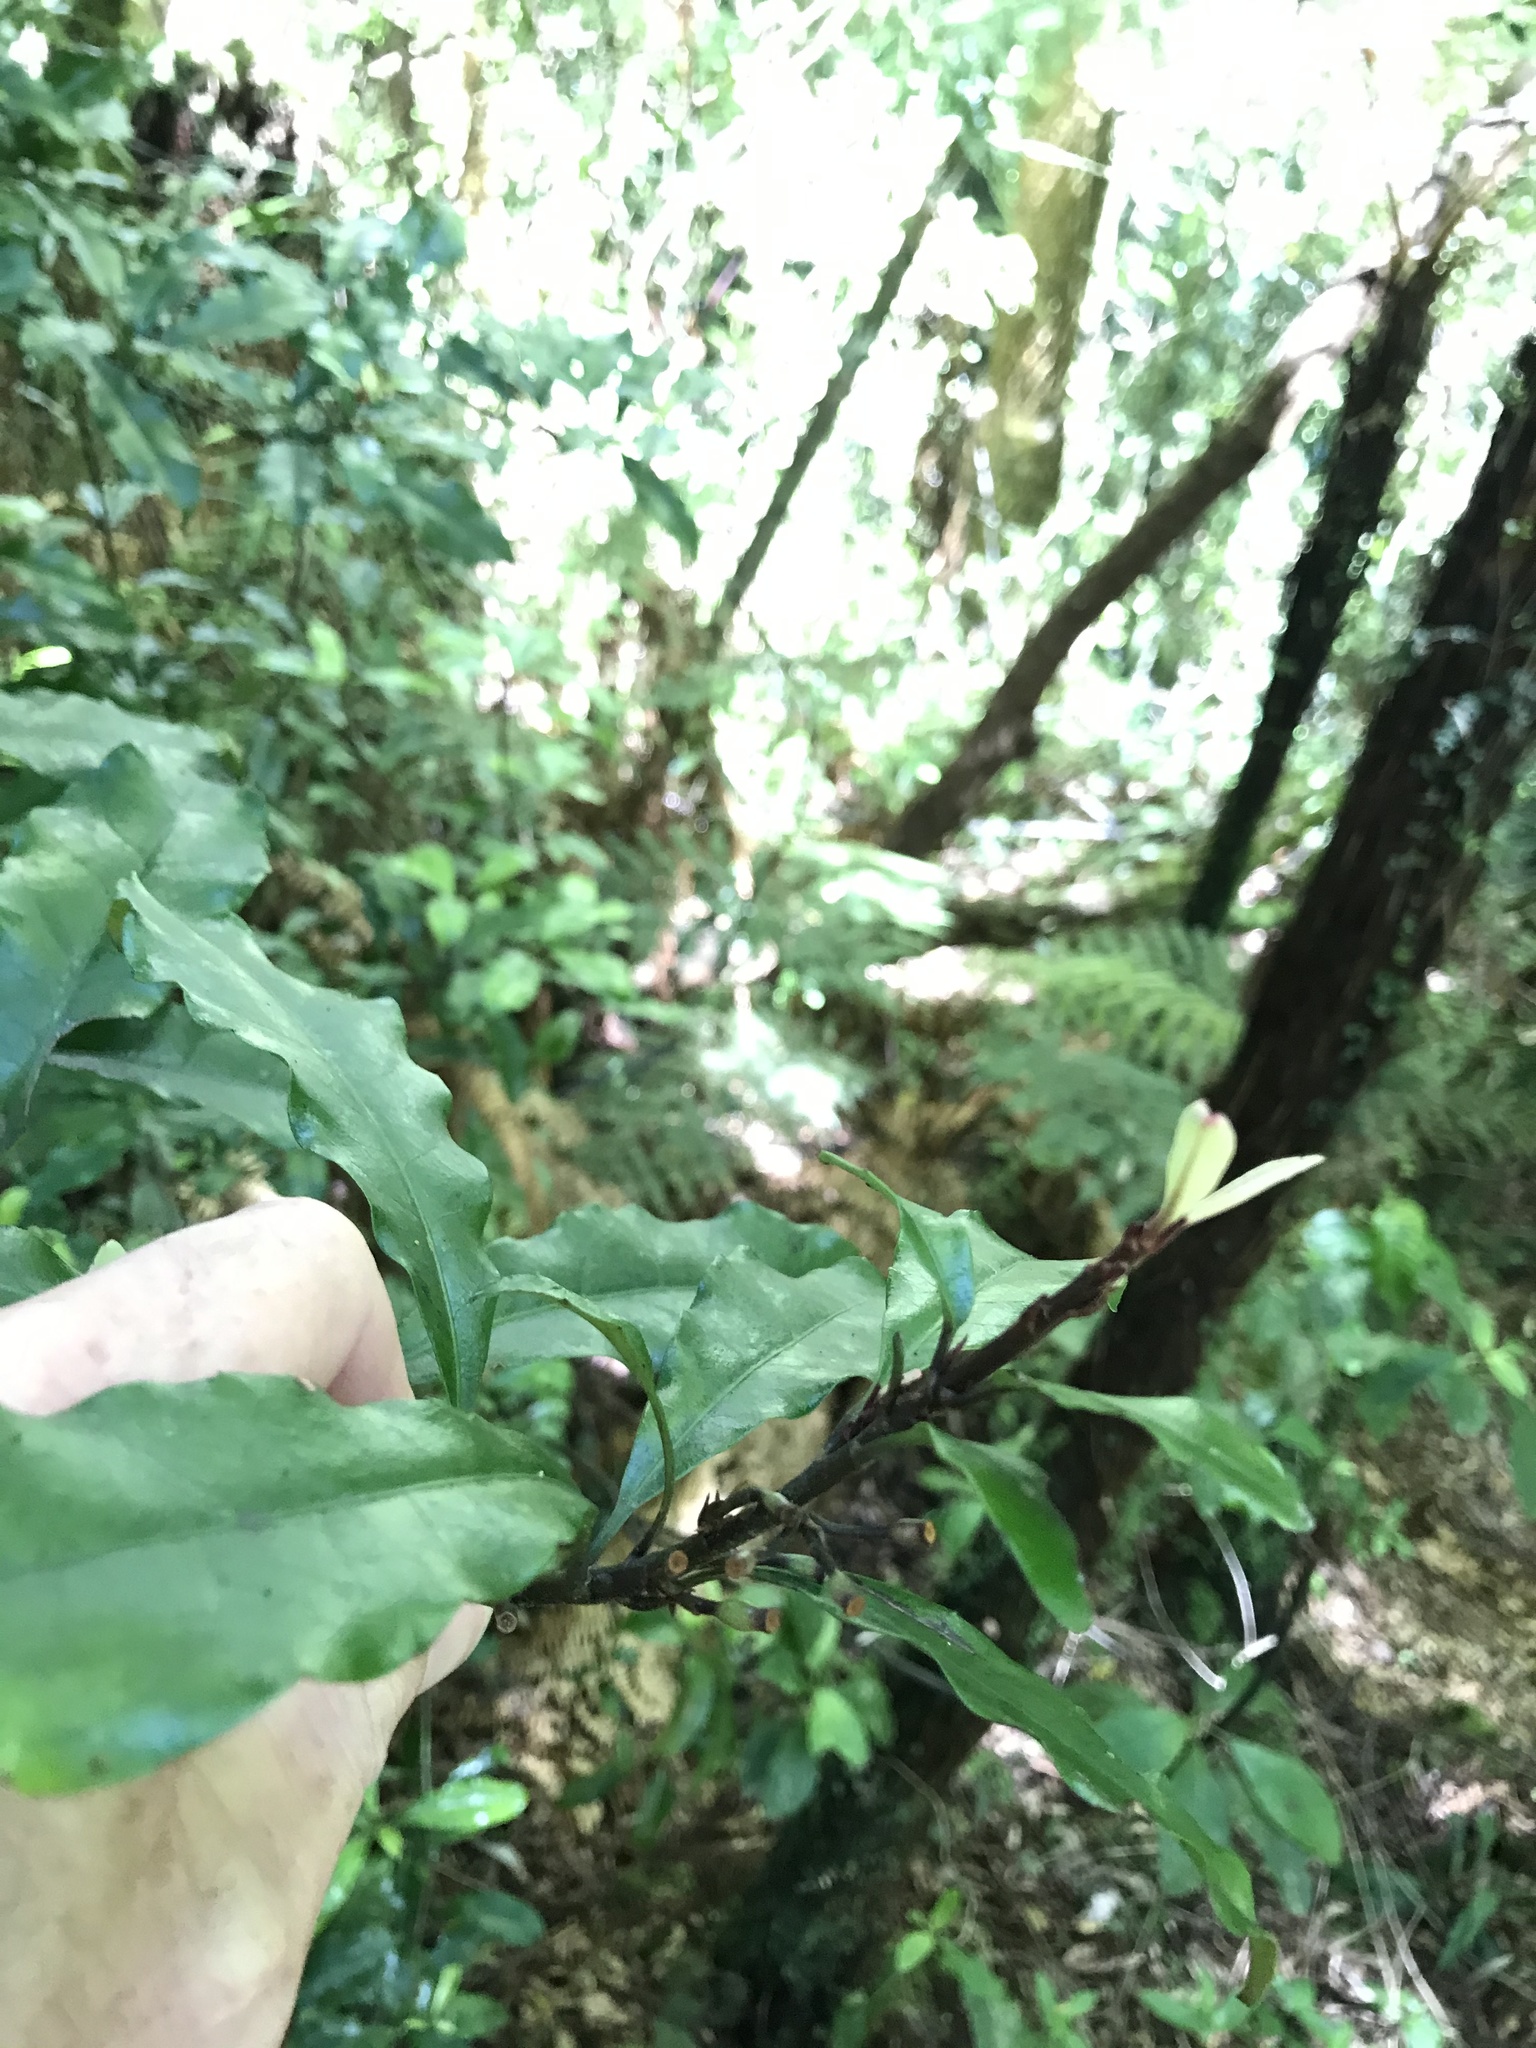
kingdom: Plantae
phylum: Tracheophyta
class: Magnoliopsida
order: Asterales
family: Alseuosmiaceae
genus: Alseuosmia
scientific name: Alseuosmia macrophylla
